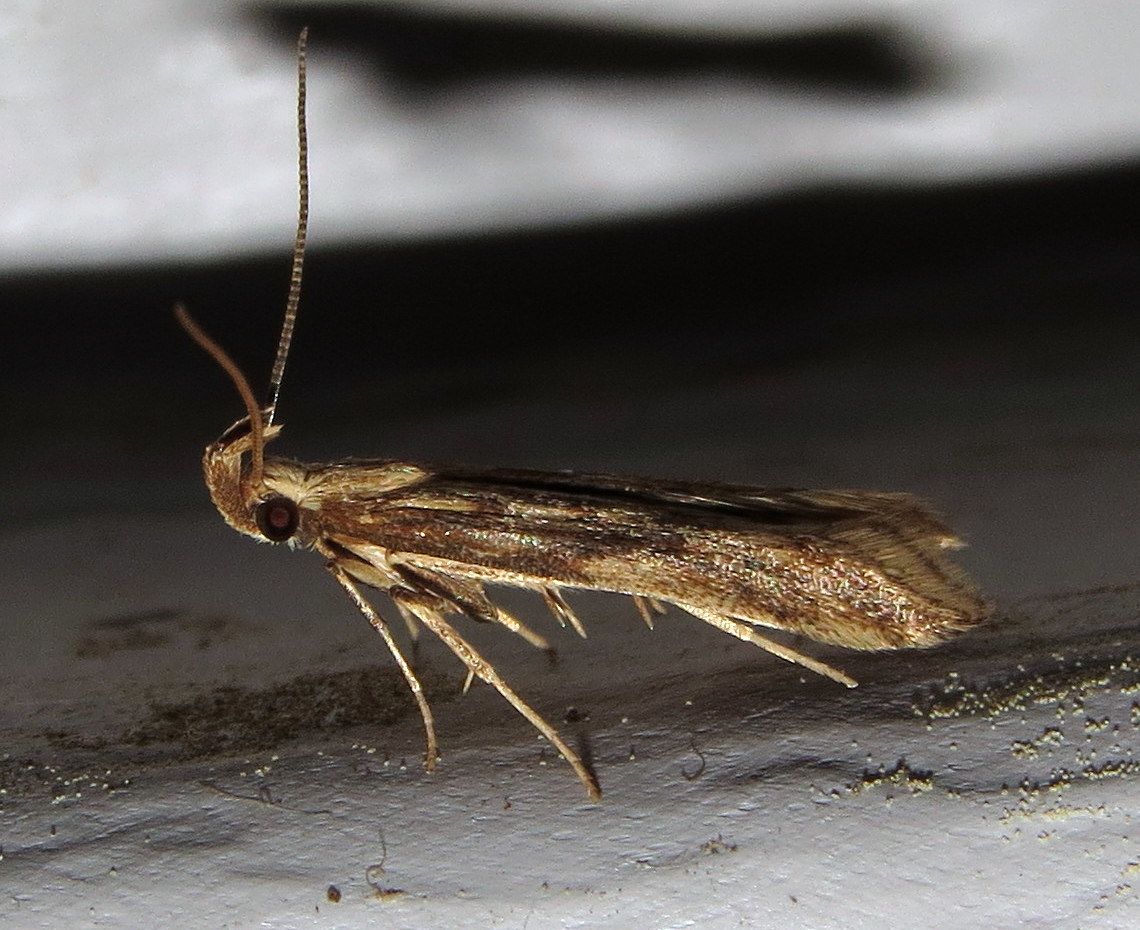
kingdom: Animalia
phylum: Arthropoda
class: Insecta
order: Lepidoptera
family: Gelechiidae
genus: Metzneria
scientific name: Metzneria lappella
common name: Burdock neb
